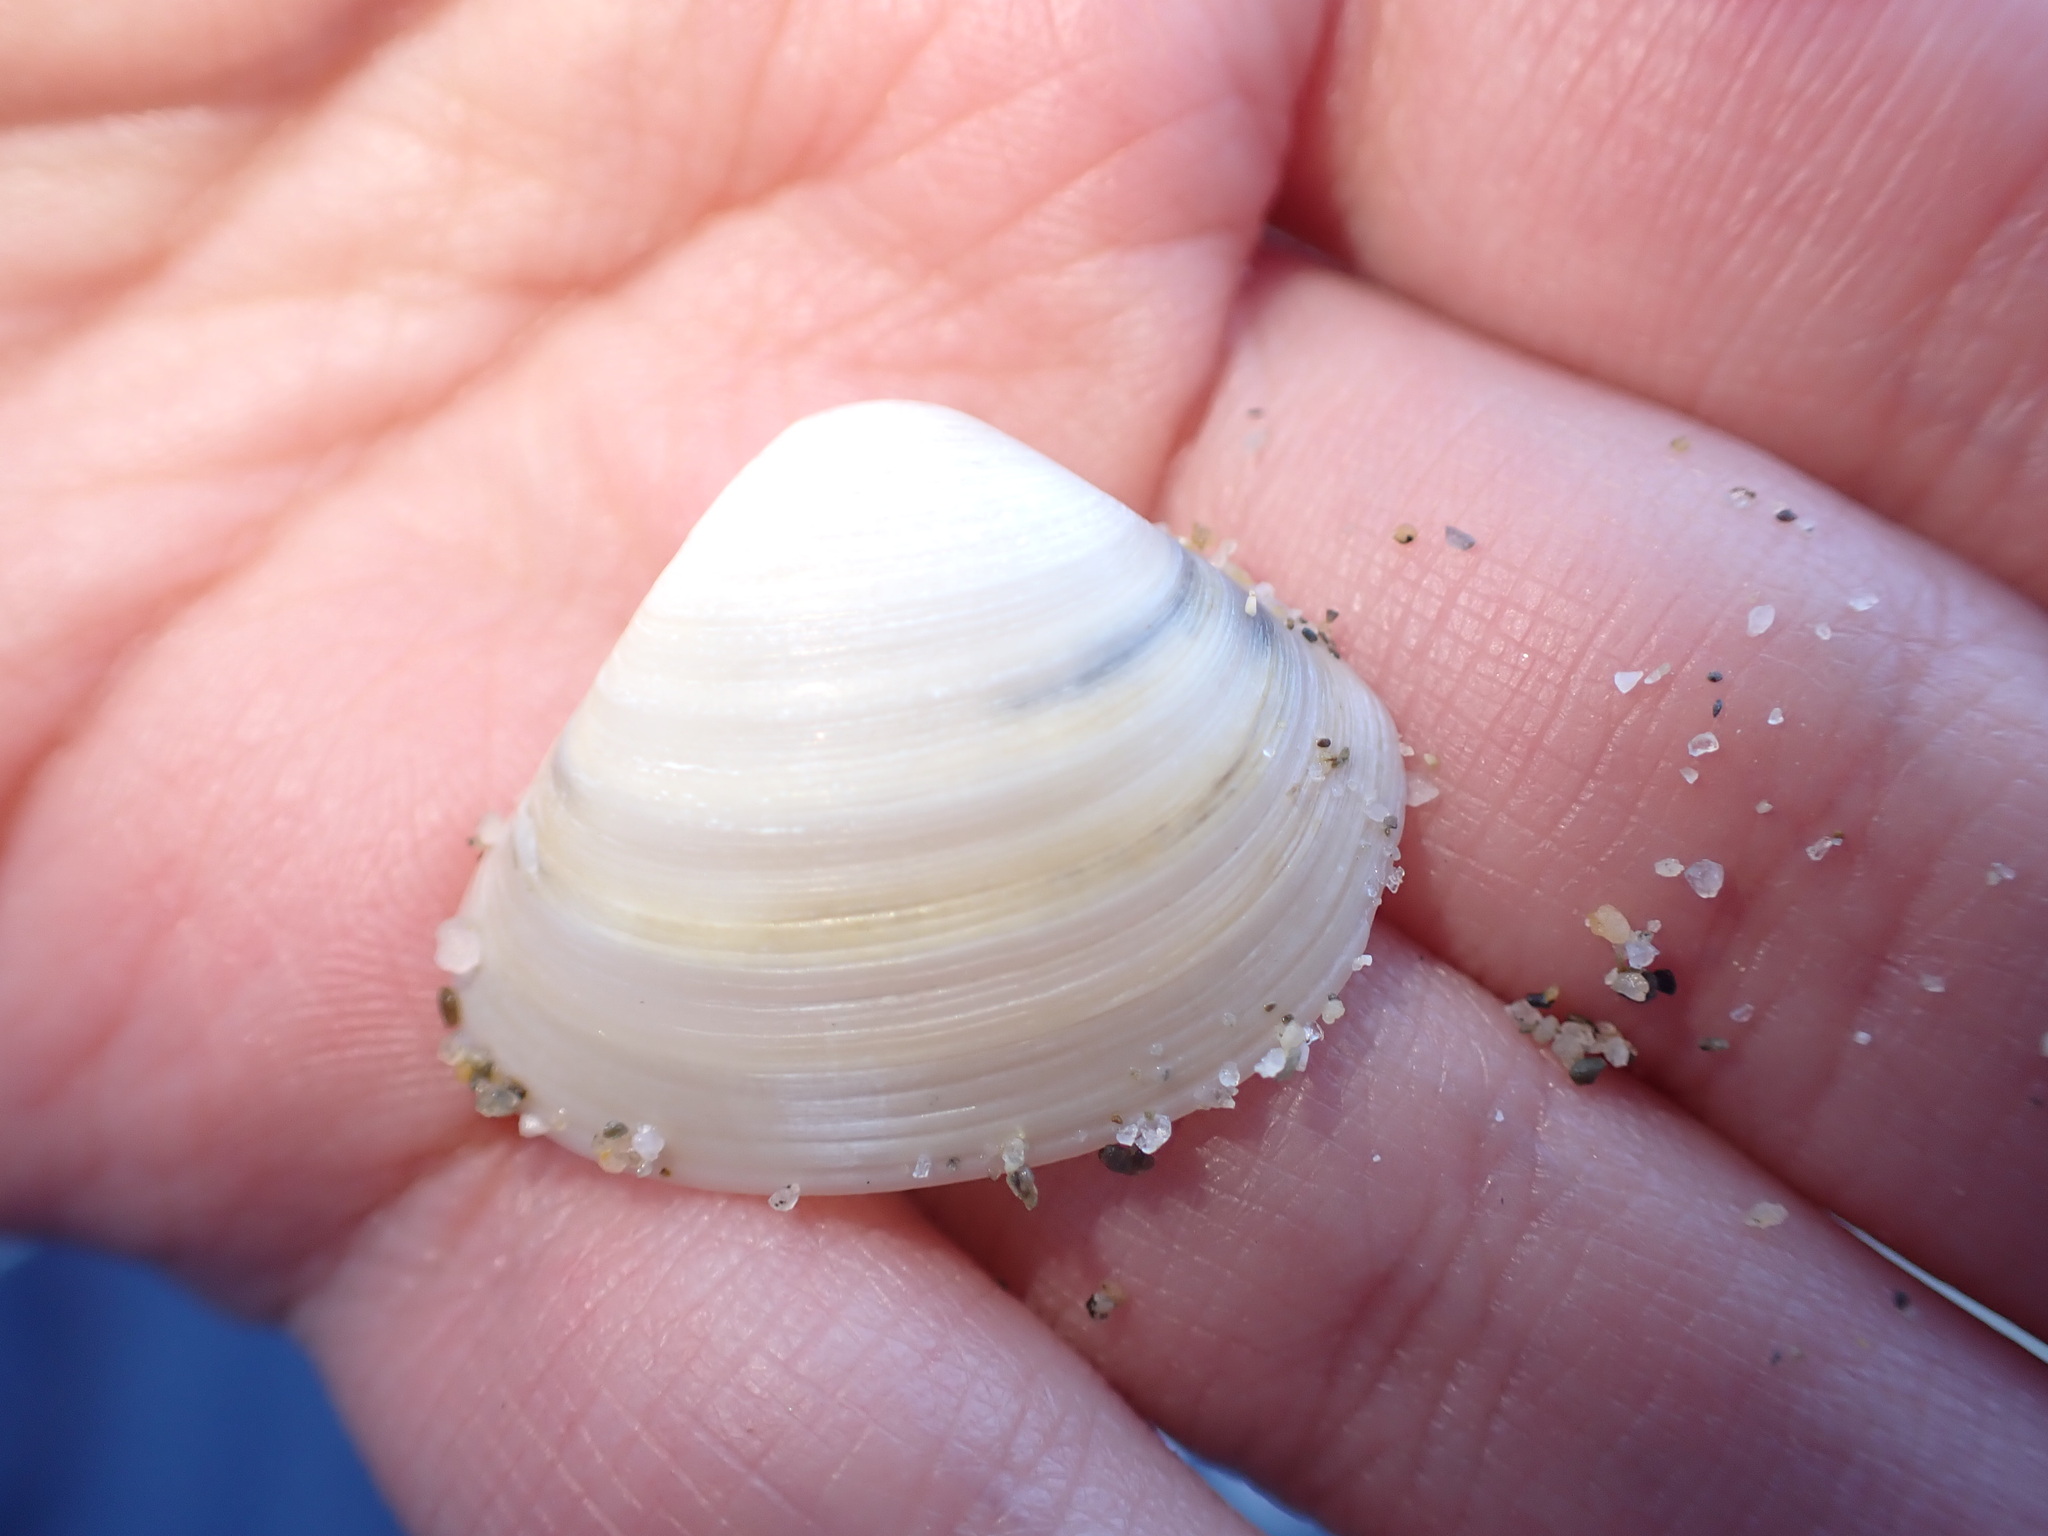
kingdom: Animalia
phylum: Mollusca
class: Bivalvia
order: Venerida
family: Mactridae
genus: Spisula
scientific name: Spisula subtruncata
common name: Cut trough shell
